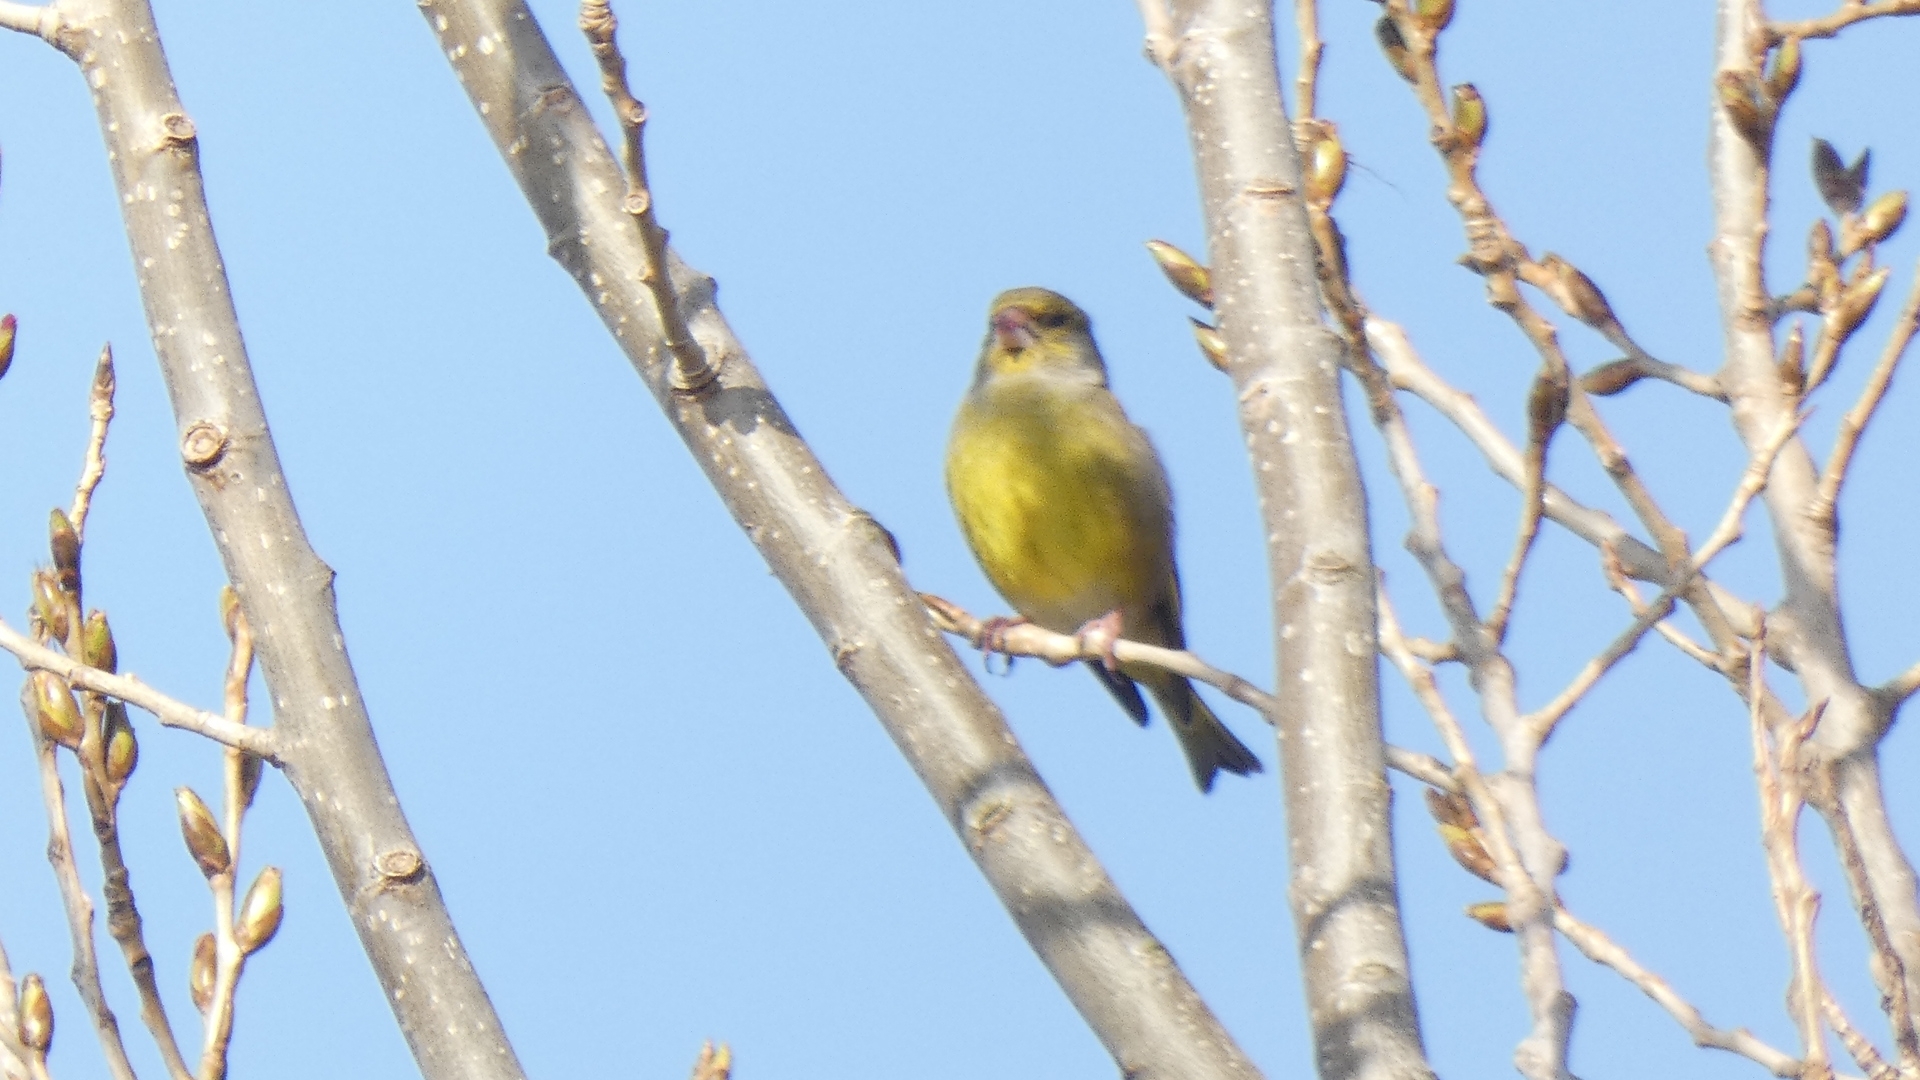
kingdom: Plantae
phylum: Tracheophyta
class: Liliopsida
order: Poales
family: Poaceae
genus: Chloris
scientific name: Chloris chloris
